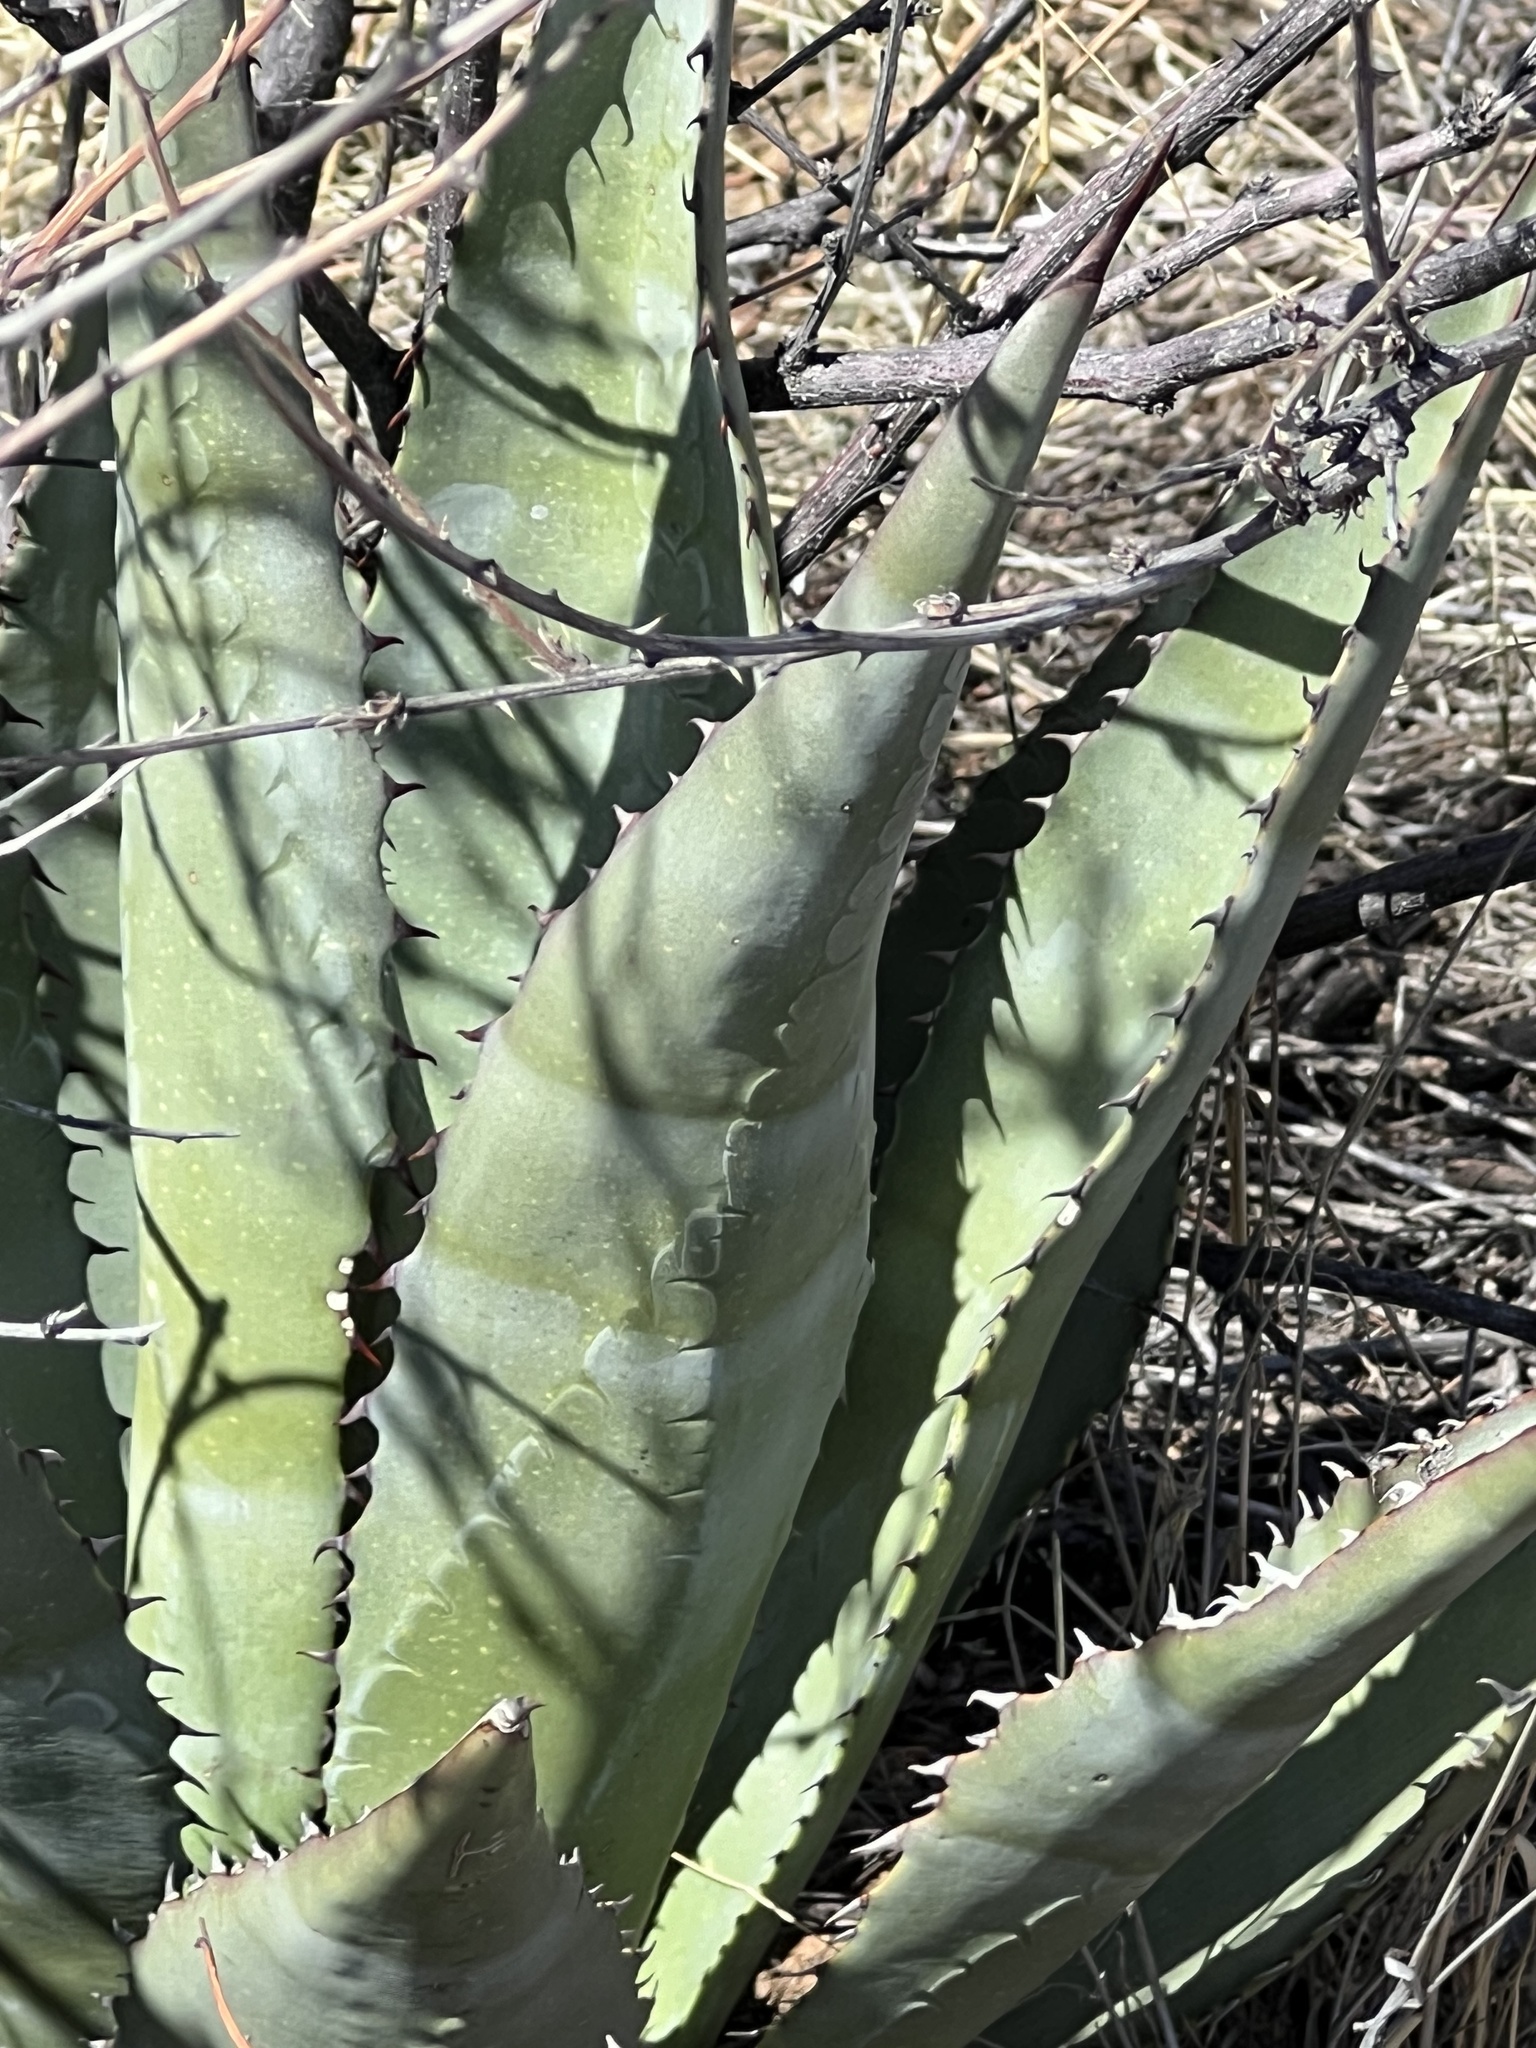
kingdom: Plantae
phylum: Tracheophyta
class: Liliopsida
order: Asparagales
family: Asparagaceae
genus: Agave
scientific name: Agave palmeri
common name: Palmer agave
